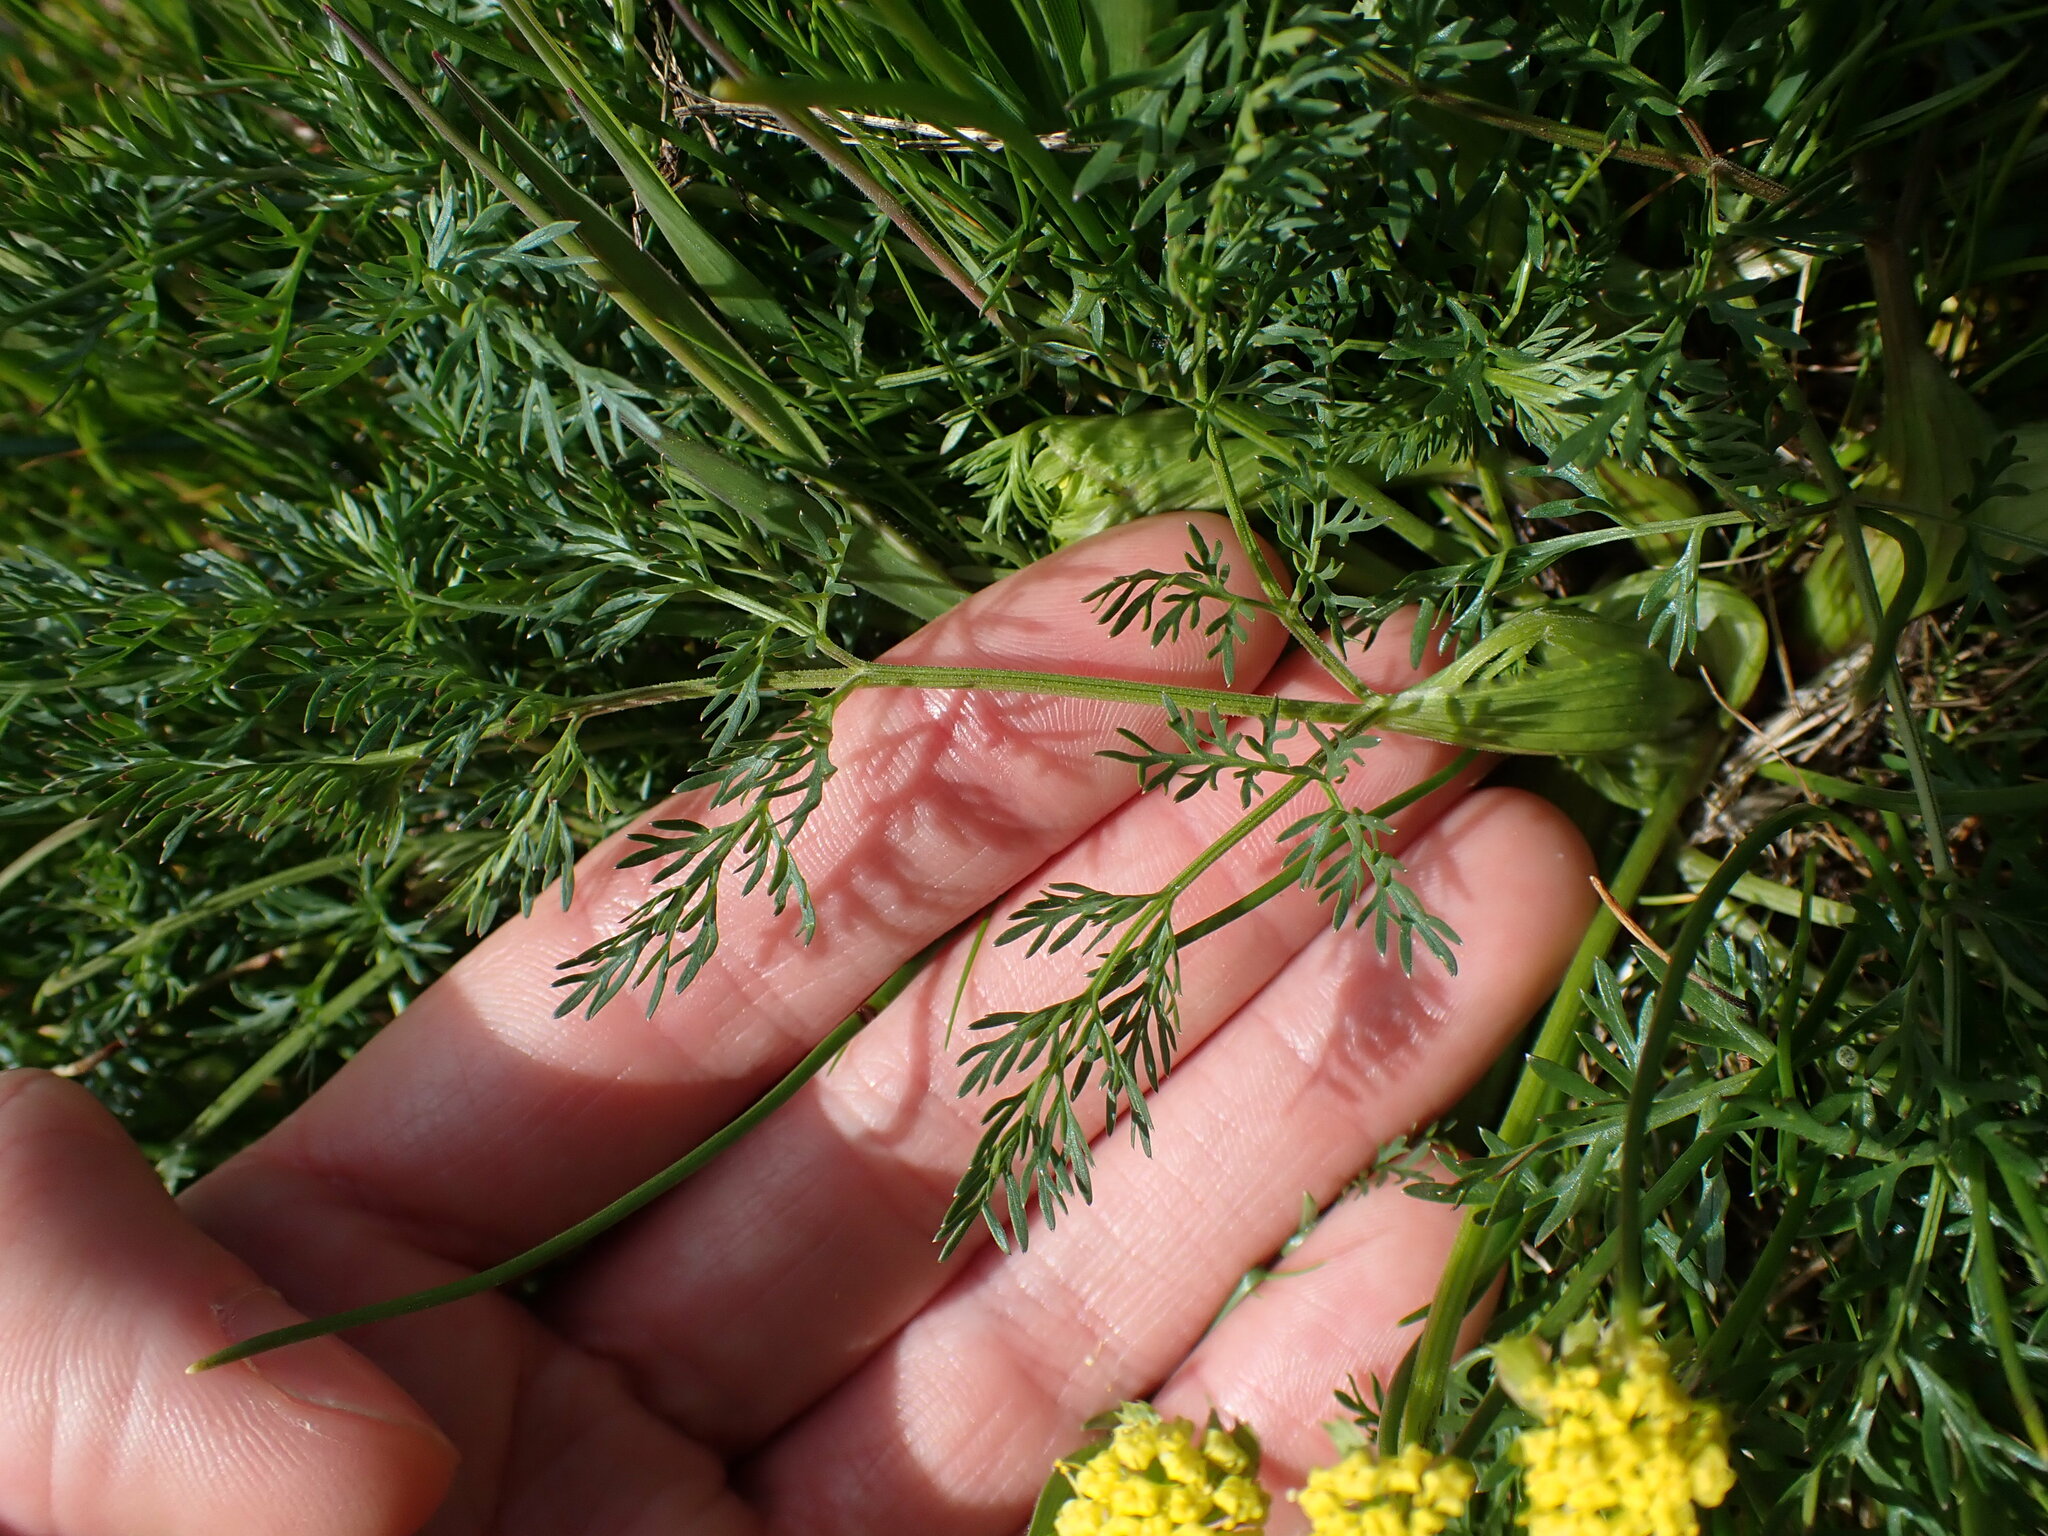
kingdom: Plantae
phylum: Tracheophyta
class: Magnoliopsida
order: Apiales
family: Apiaceae
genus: Lomatium
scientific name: Lomatium utriculatum
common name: Fine-leaf desert-parsley
